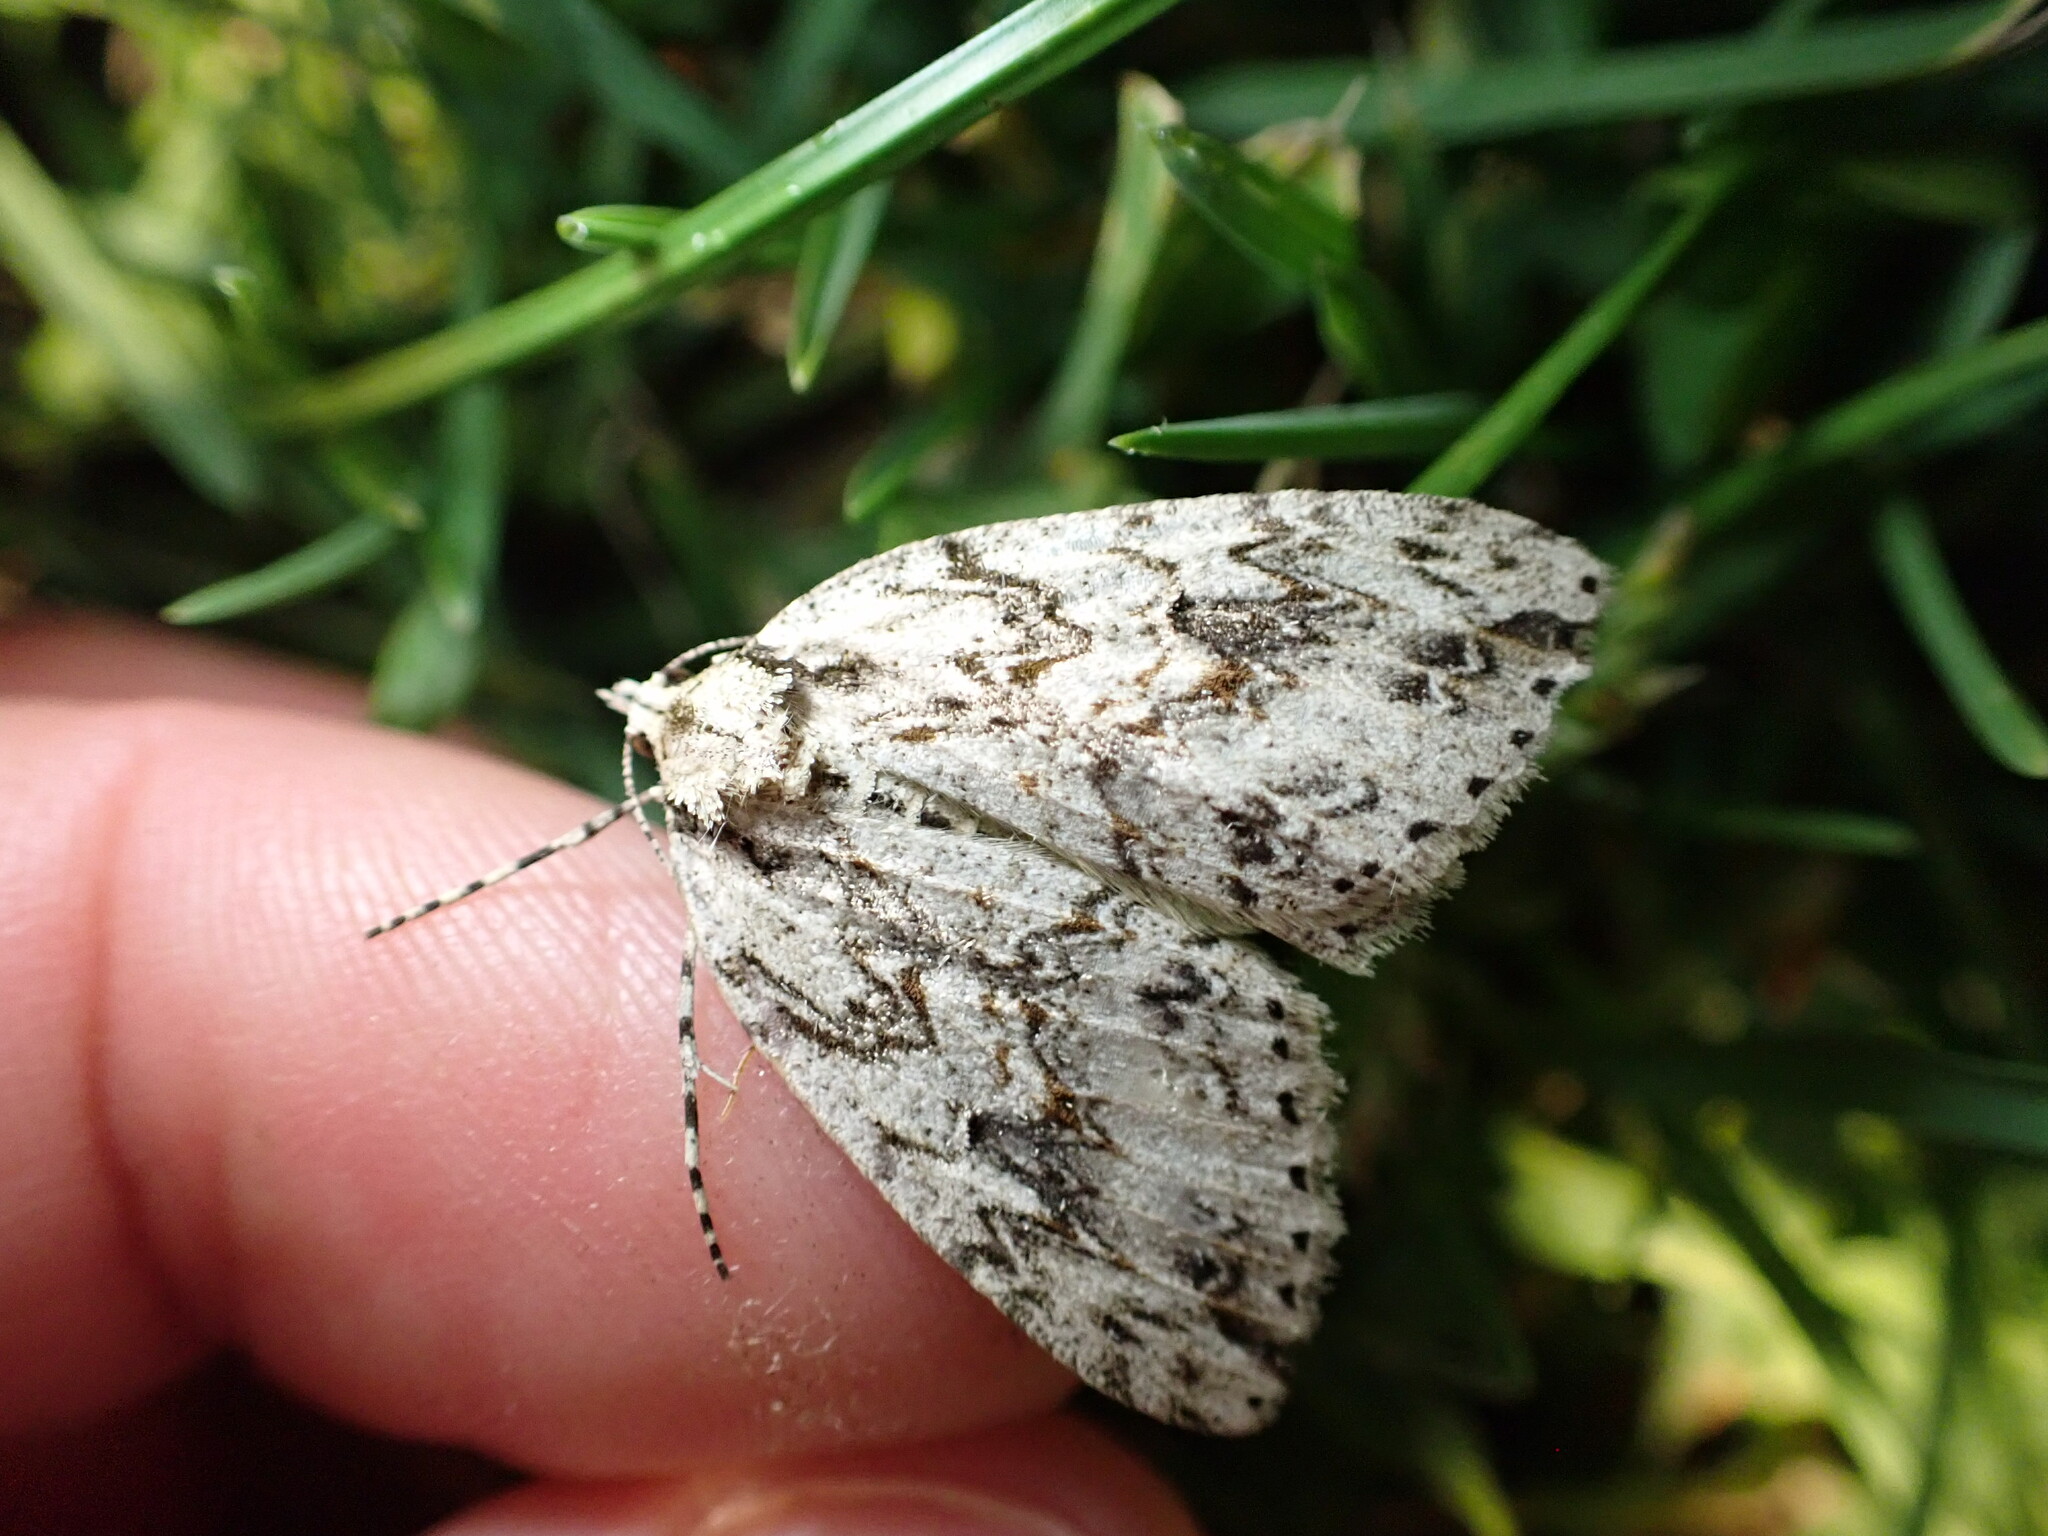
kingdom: Animalia
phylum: Arthropoda
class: Insecta
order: Lepidoptera
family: Geometridae
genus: Pseudocoremia
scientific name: Pseudocoremia rudisata
